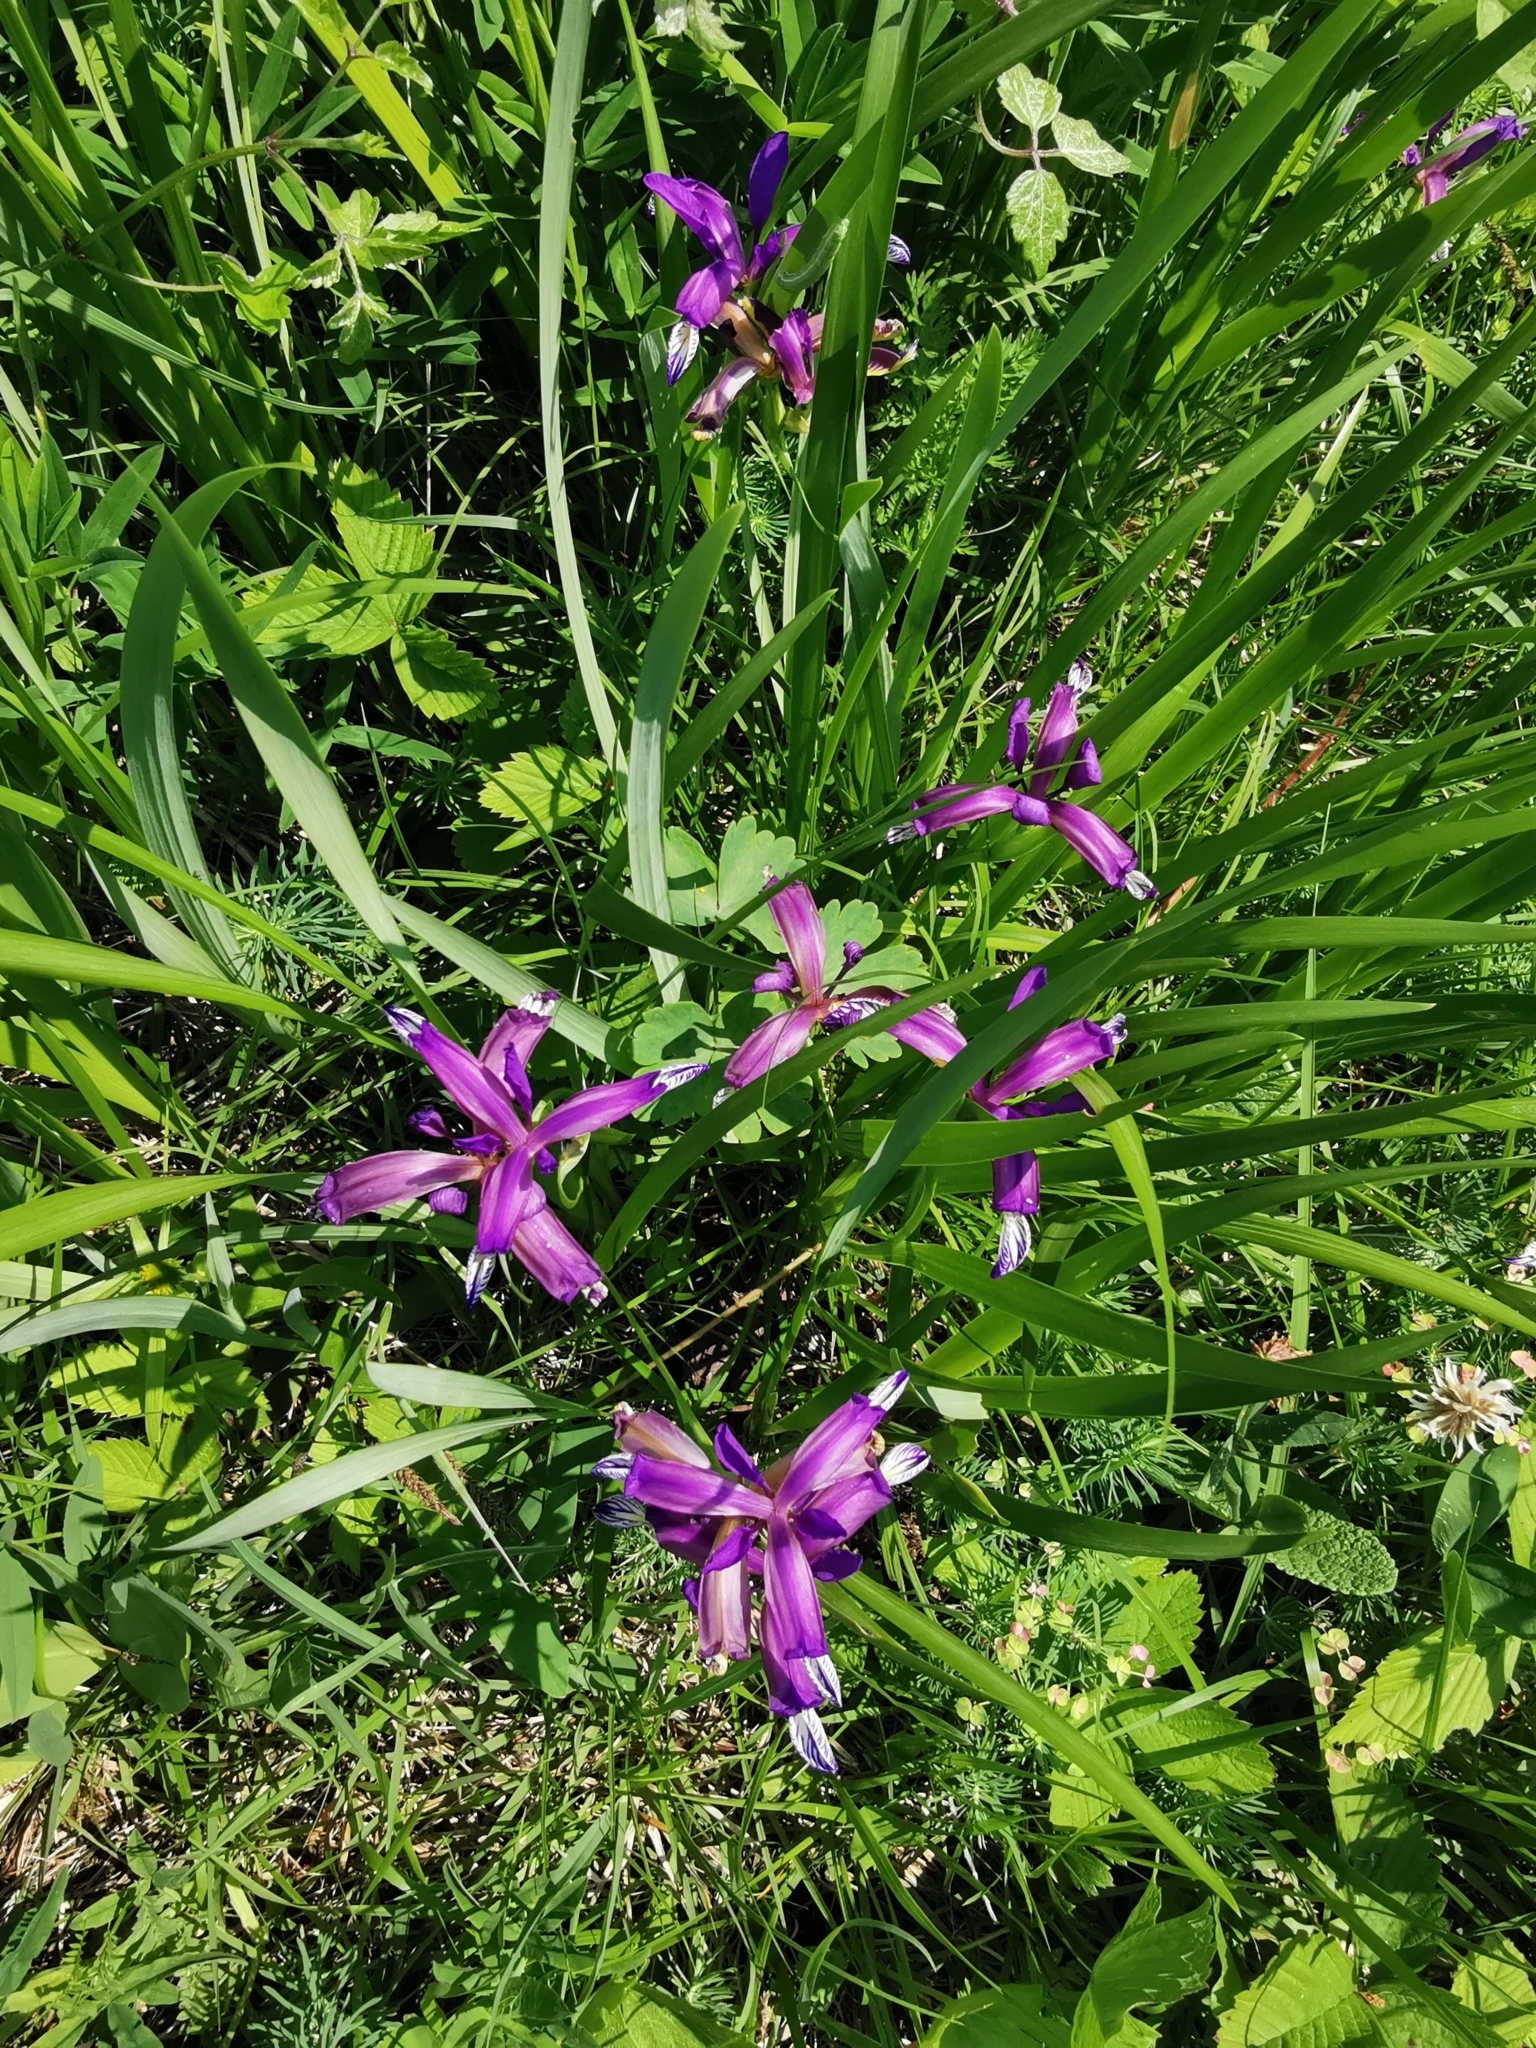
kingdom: Plantae
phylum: Tracheophyta
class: Liliopsida
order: Asparagales
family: Iridaceae
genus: Iris
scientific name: Iris graminea
